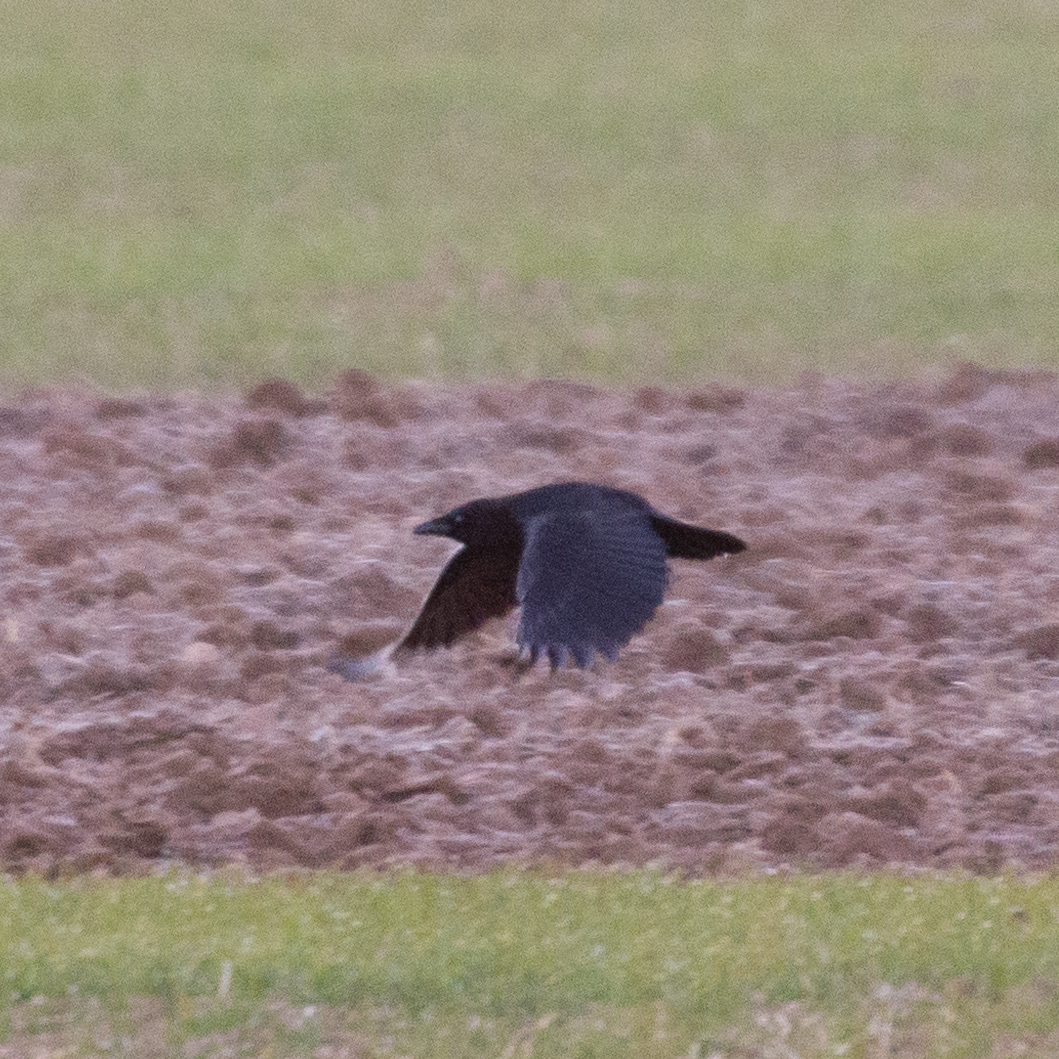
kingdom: Animalia
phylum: Chordata
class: Aves
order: Passeriformes
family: Corvidae
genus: Corvus
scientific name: Corvus corone
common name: Carrion crow
